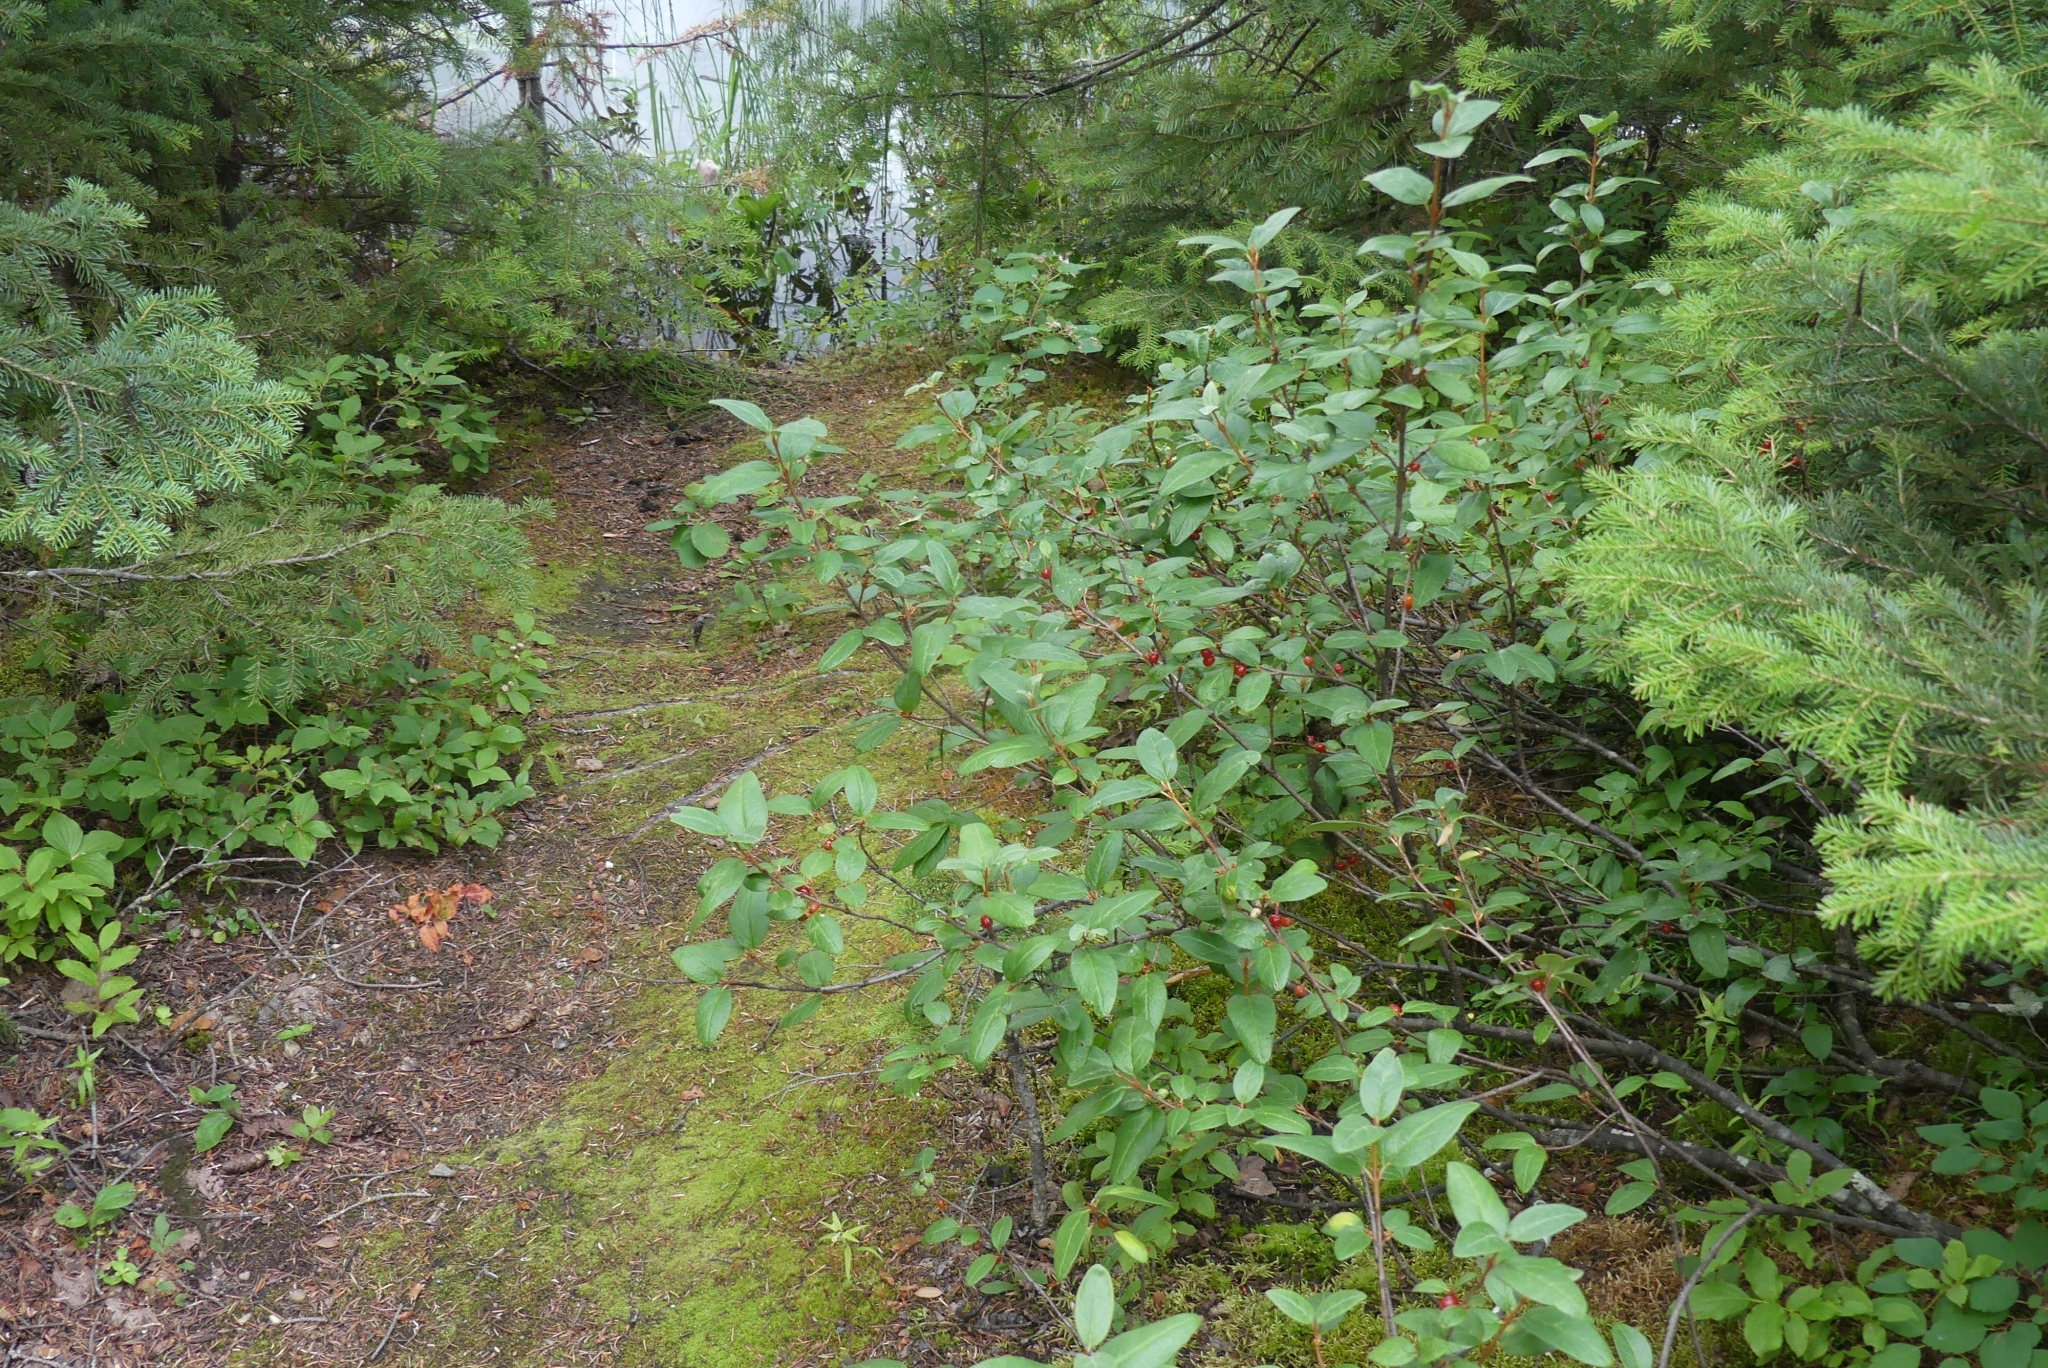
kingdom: Plantae
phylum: Tracheophyta
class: Magnoliopsida
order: Rosales
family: Elaeagnaceae
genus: Shepherdia
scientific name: Shepherdia canadensis
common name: Soapberry
